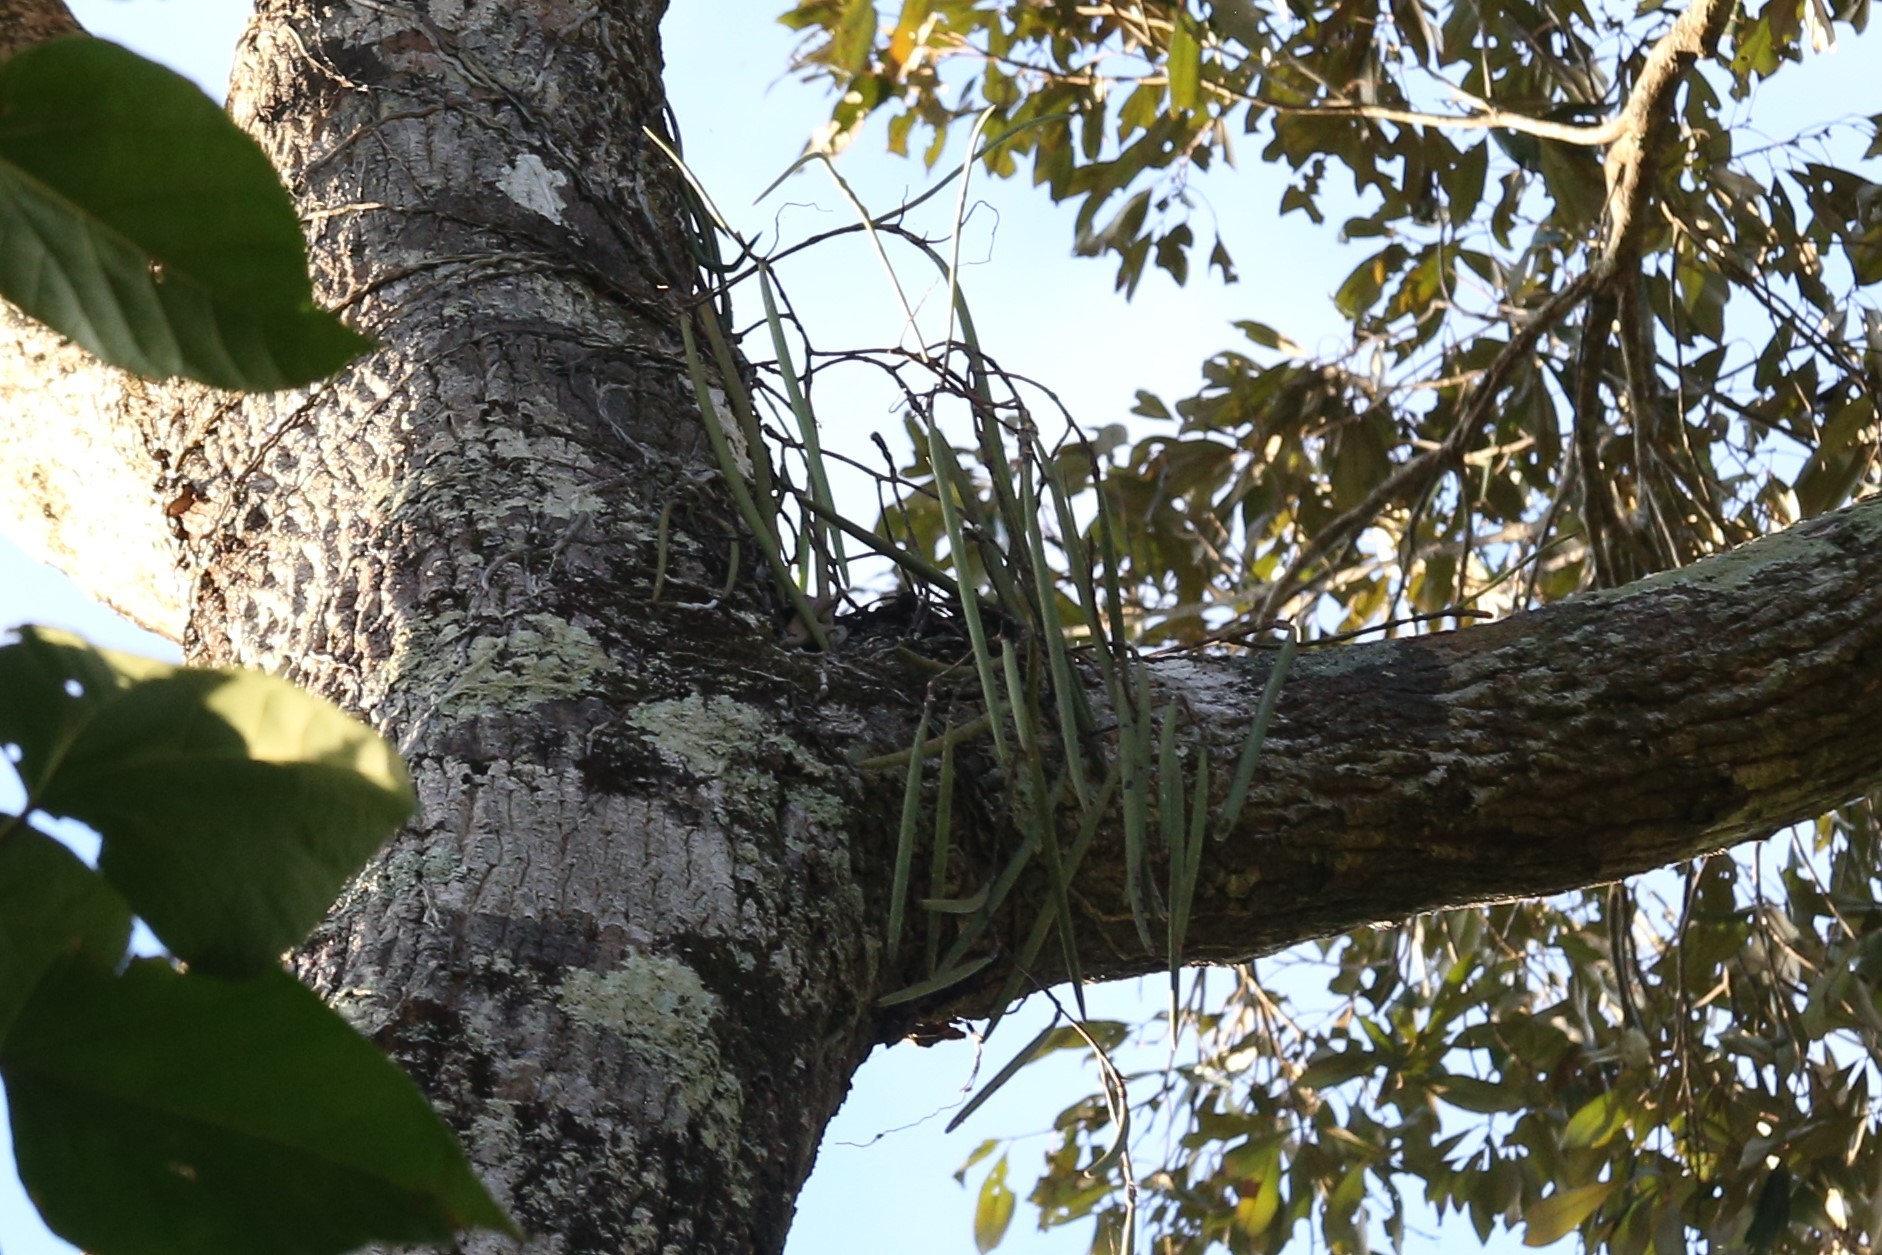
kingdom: Plantae
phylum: Tracheophyta
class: Liliopsida
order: Asparagales
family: Orchidaceae
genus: Dendrobium
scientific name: Dendrobium teretifolium
